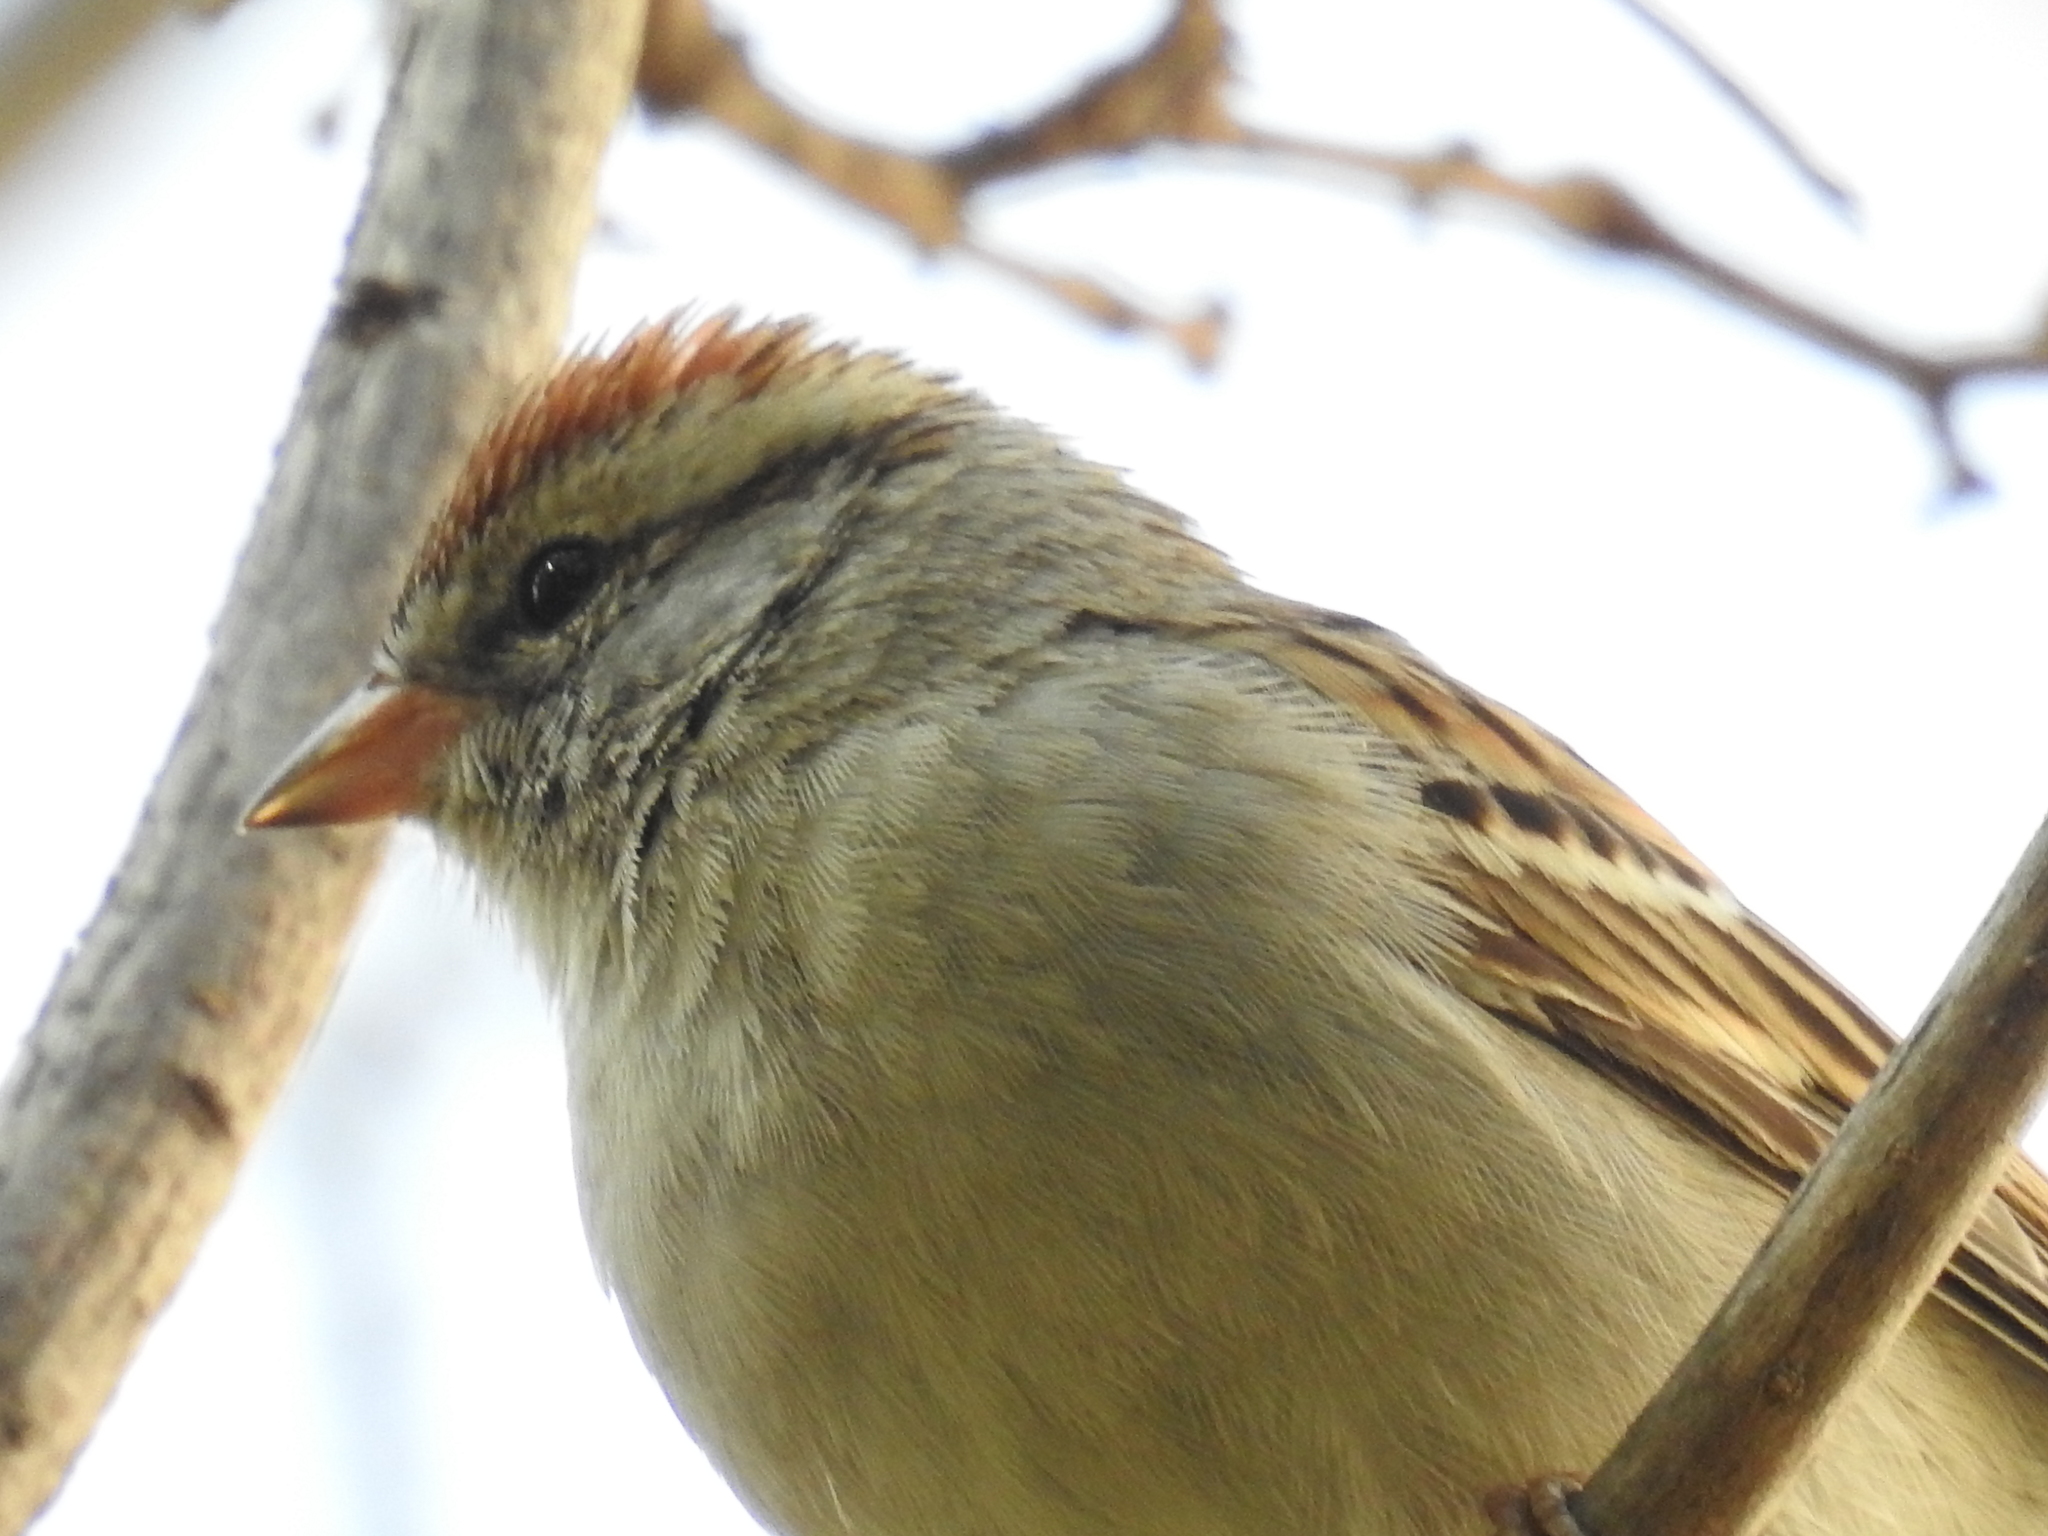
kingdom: Animalia
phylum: Chordata
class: Aves
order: Passeriformes
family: Passerellidae
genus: Spizella
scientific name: Spizella passerina
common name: Chipping sparrow
